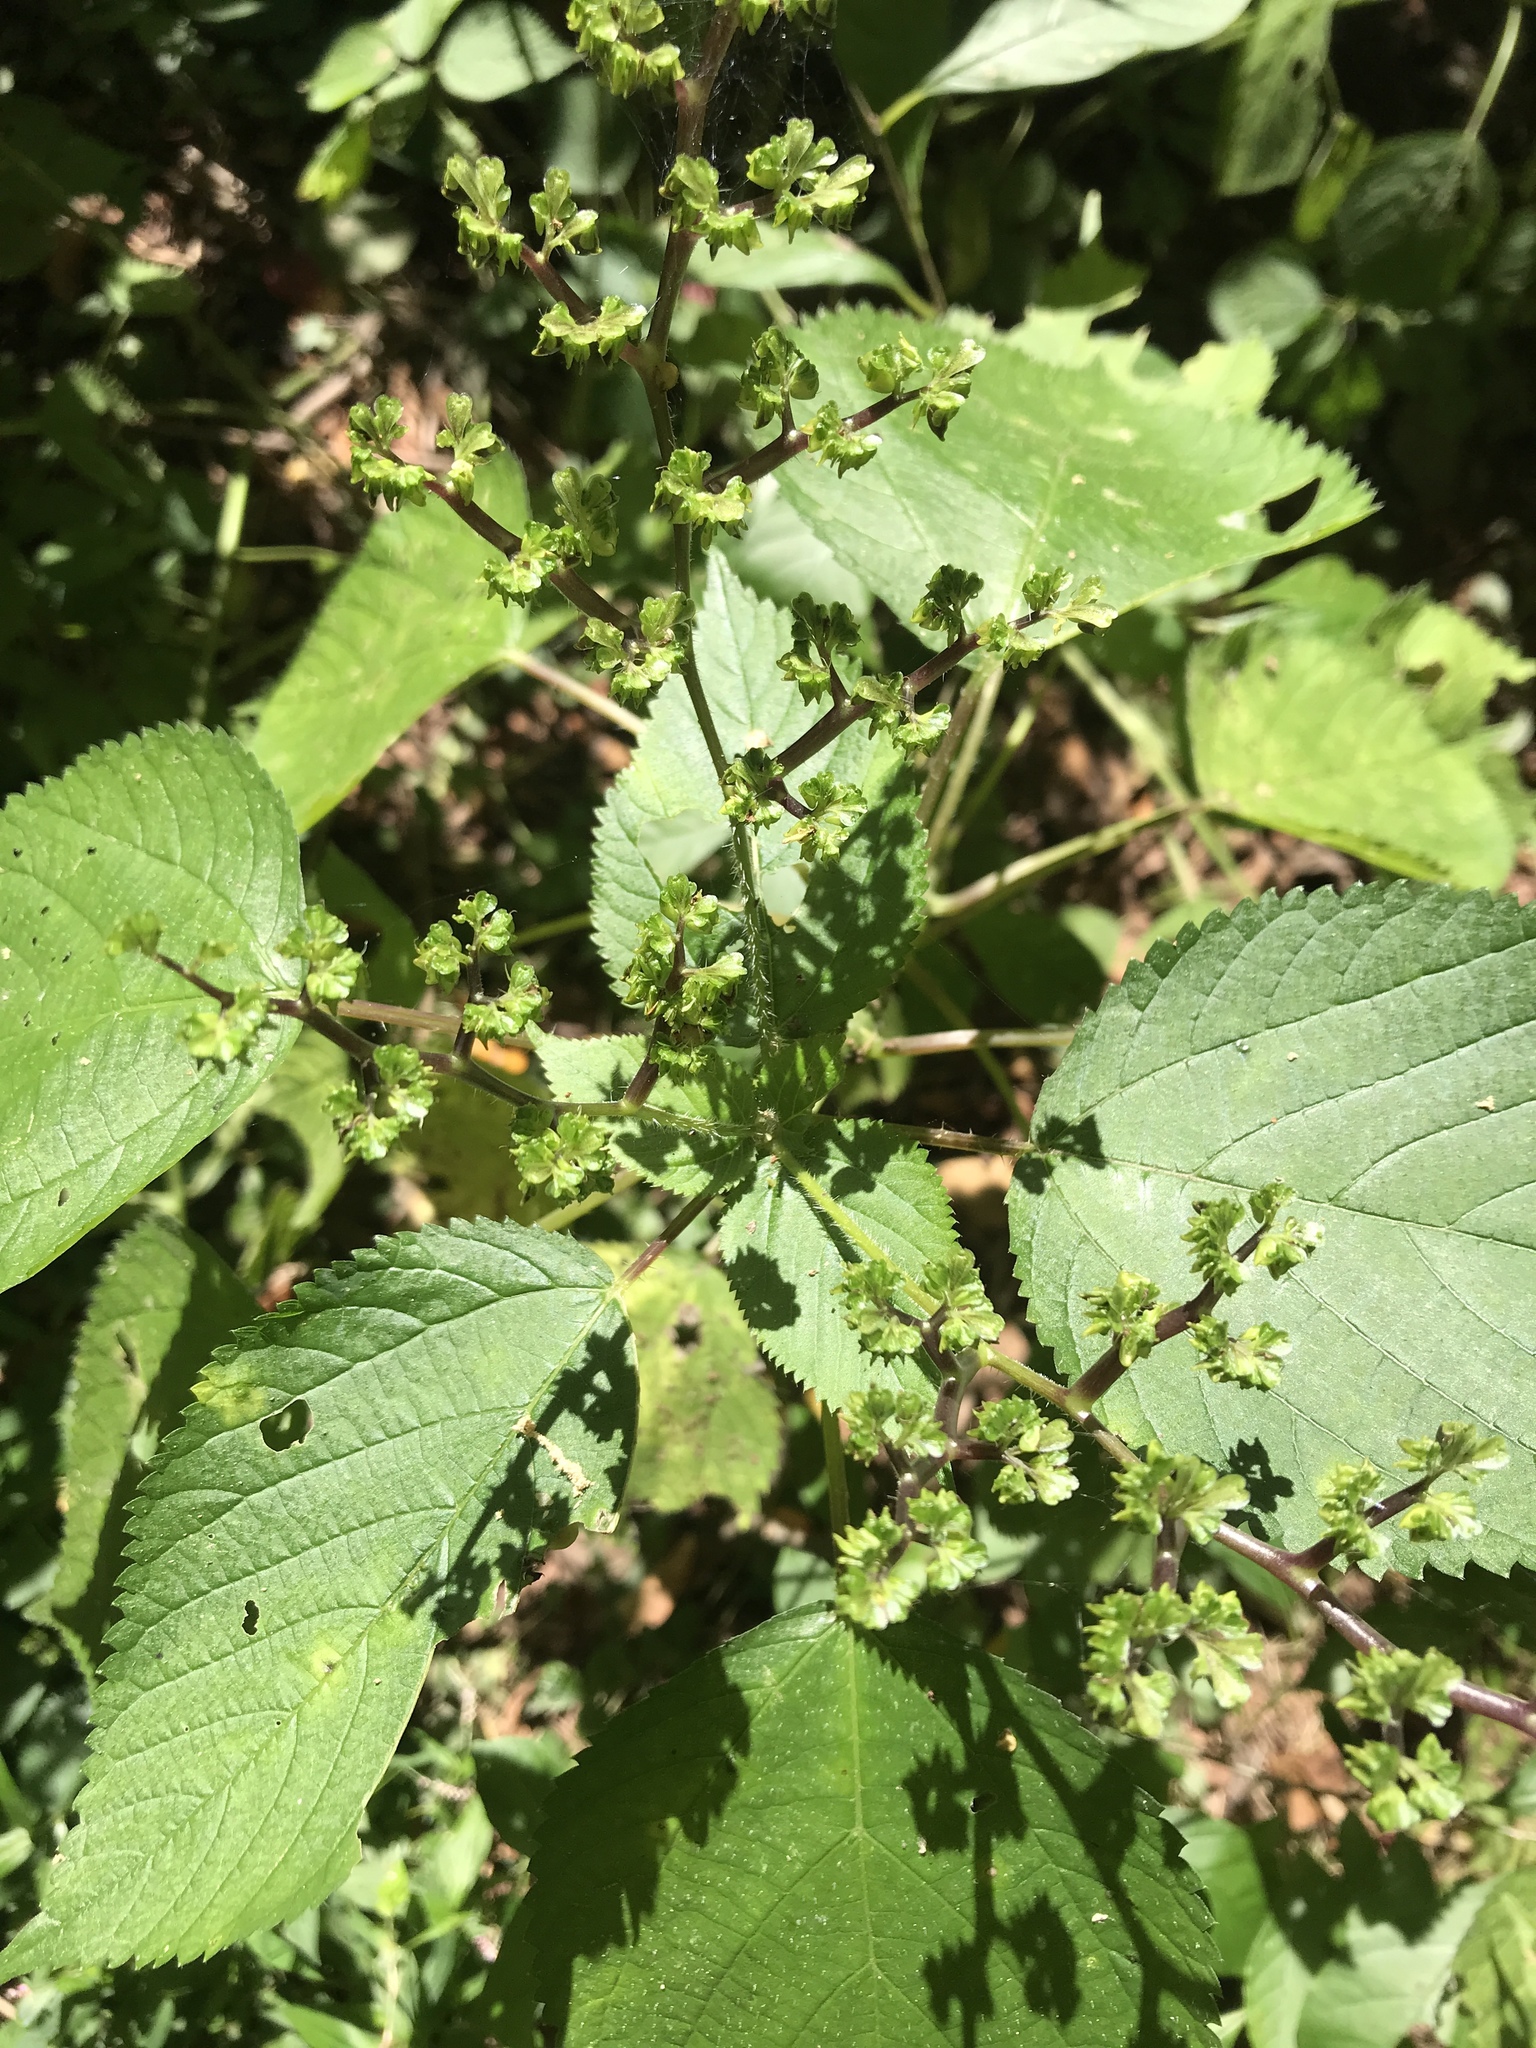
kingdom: Plantae
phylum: Tracheophyta
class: Magnoliopsida
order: Rosales
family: Urticaceae
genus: Laportea
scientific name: Laportea canadensis
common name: Canada nettle
